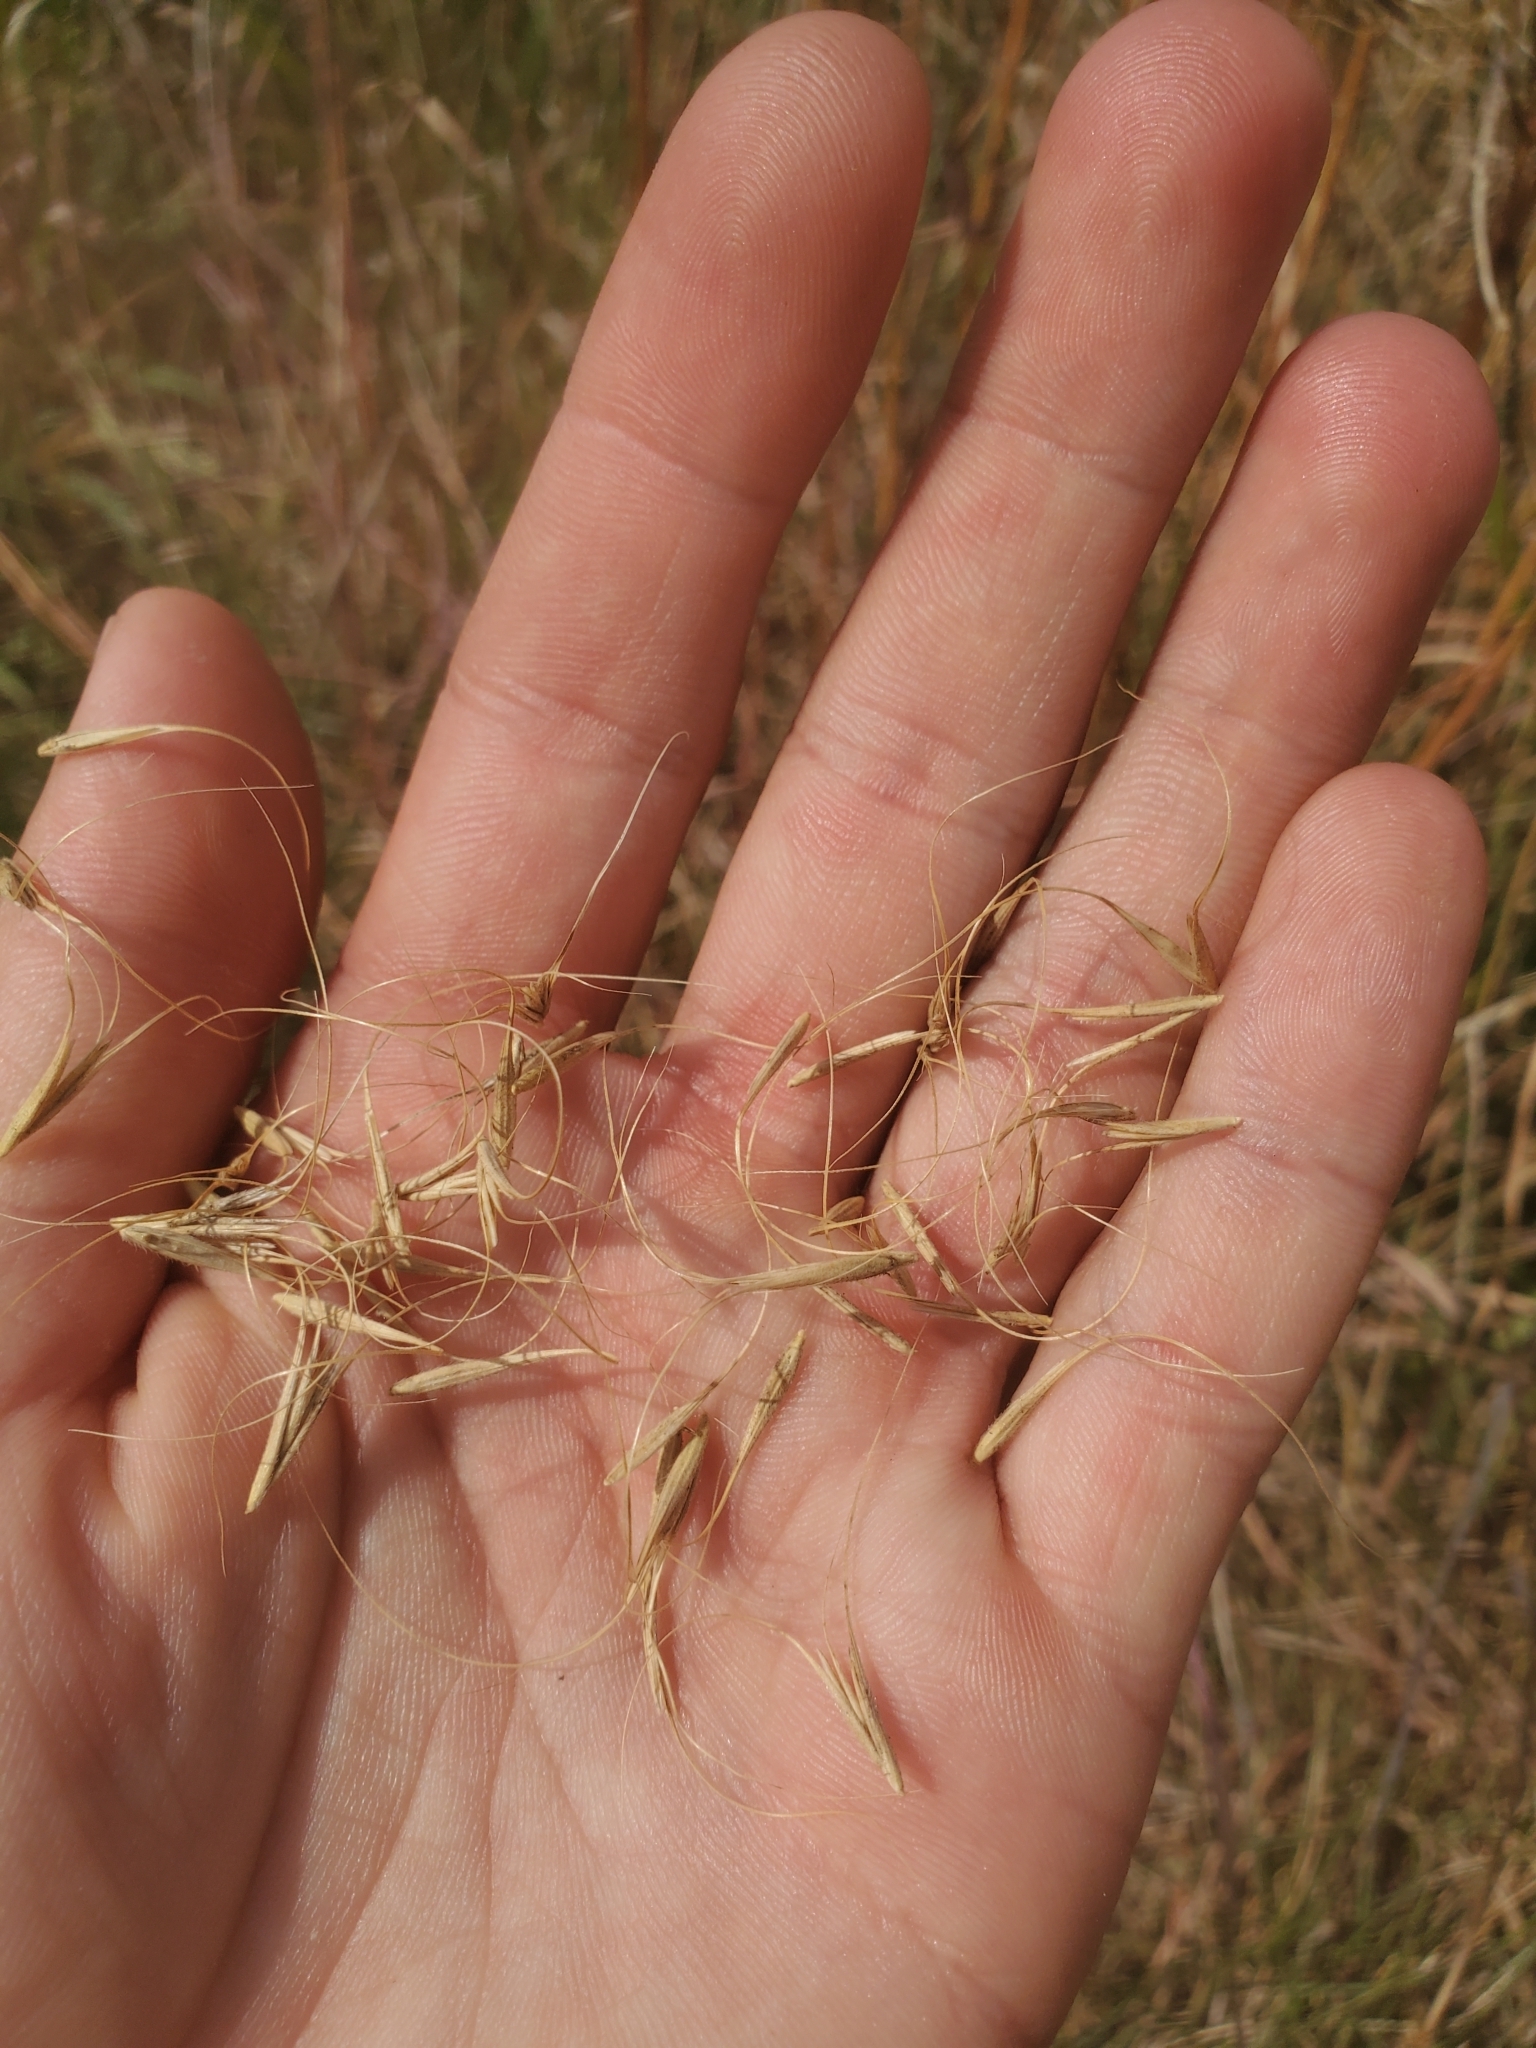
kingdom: Plantae
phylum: Tracheophyta
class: Liliopsida
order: Poales
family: Poaceae
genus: Elymus
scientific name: Elymus canadensis
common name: Canada wild rye
